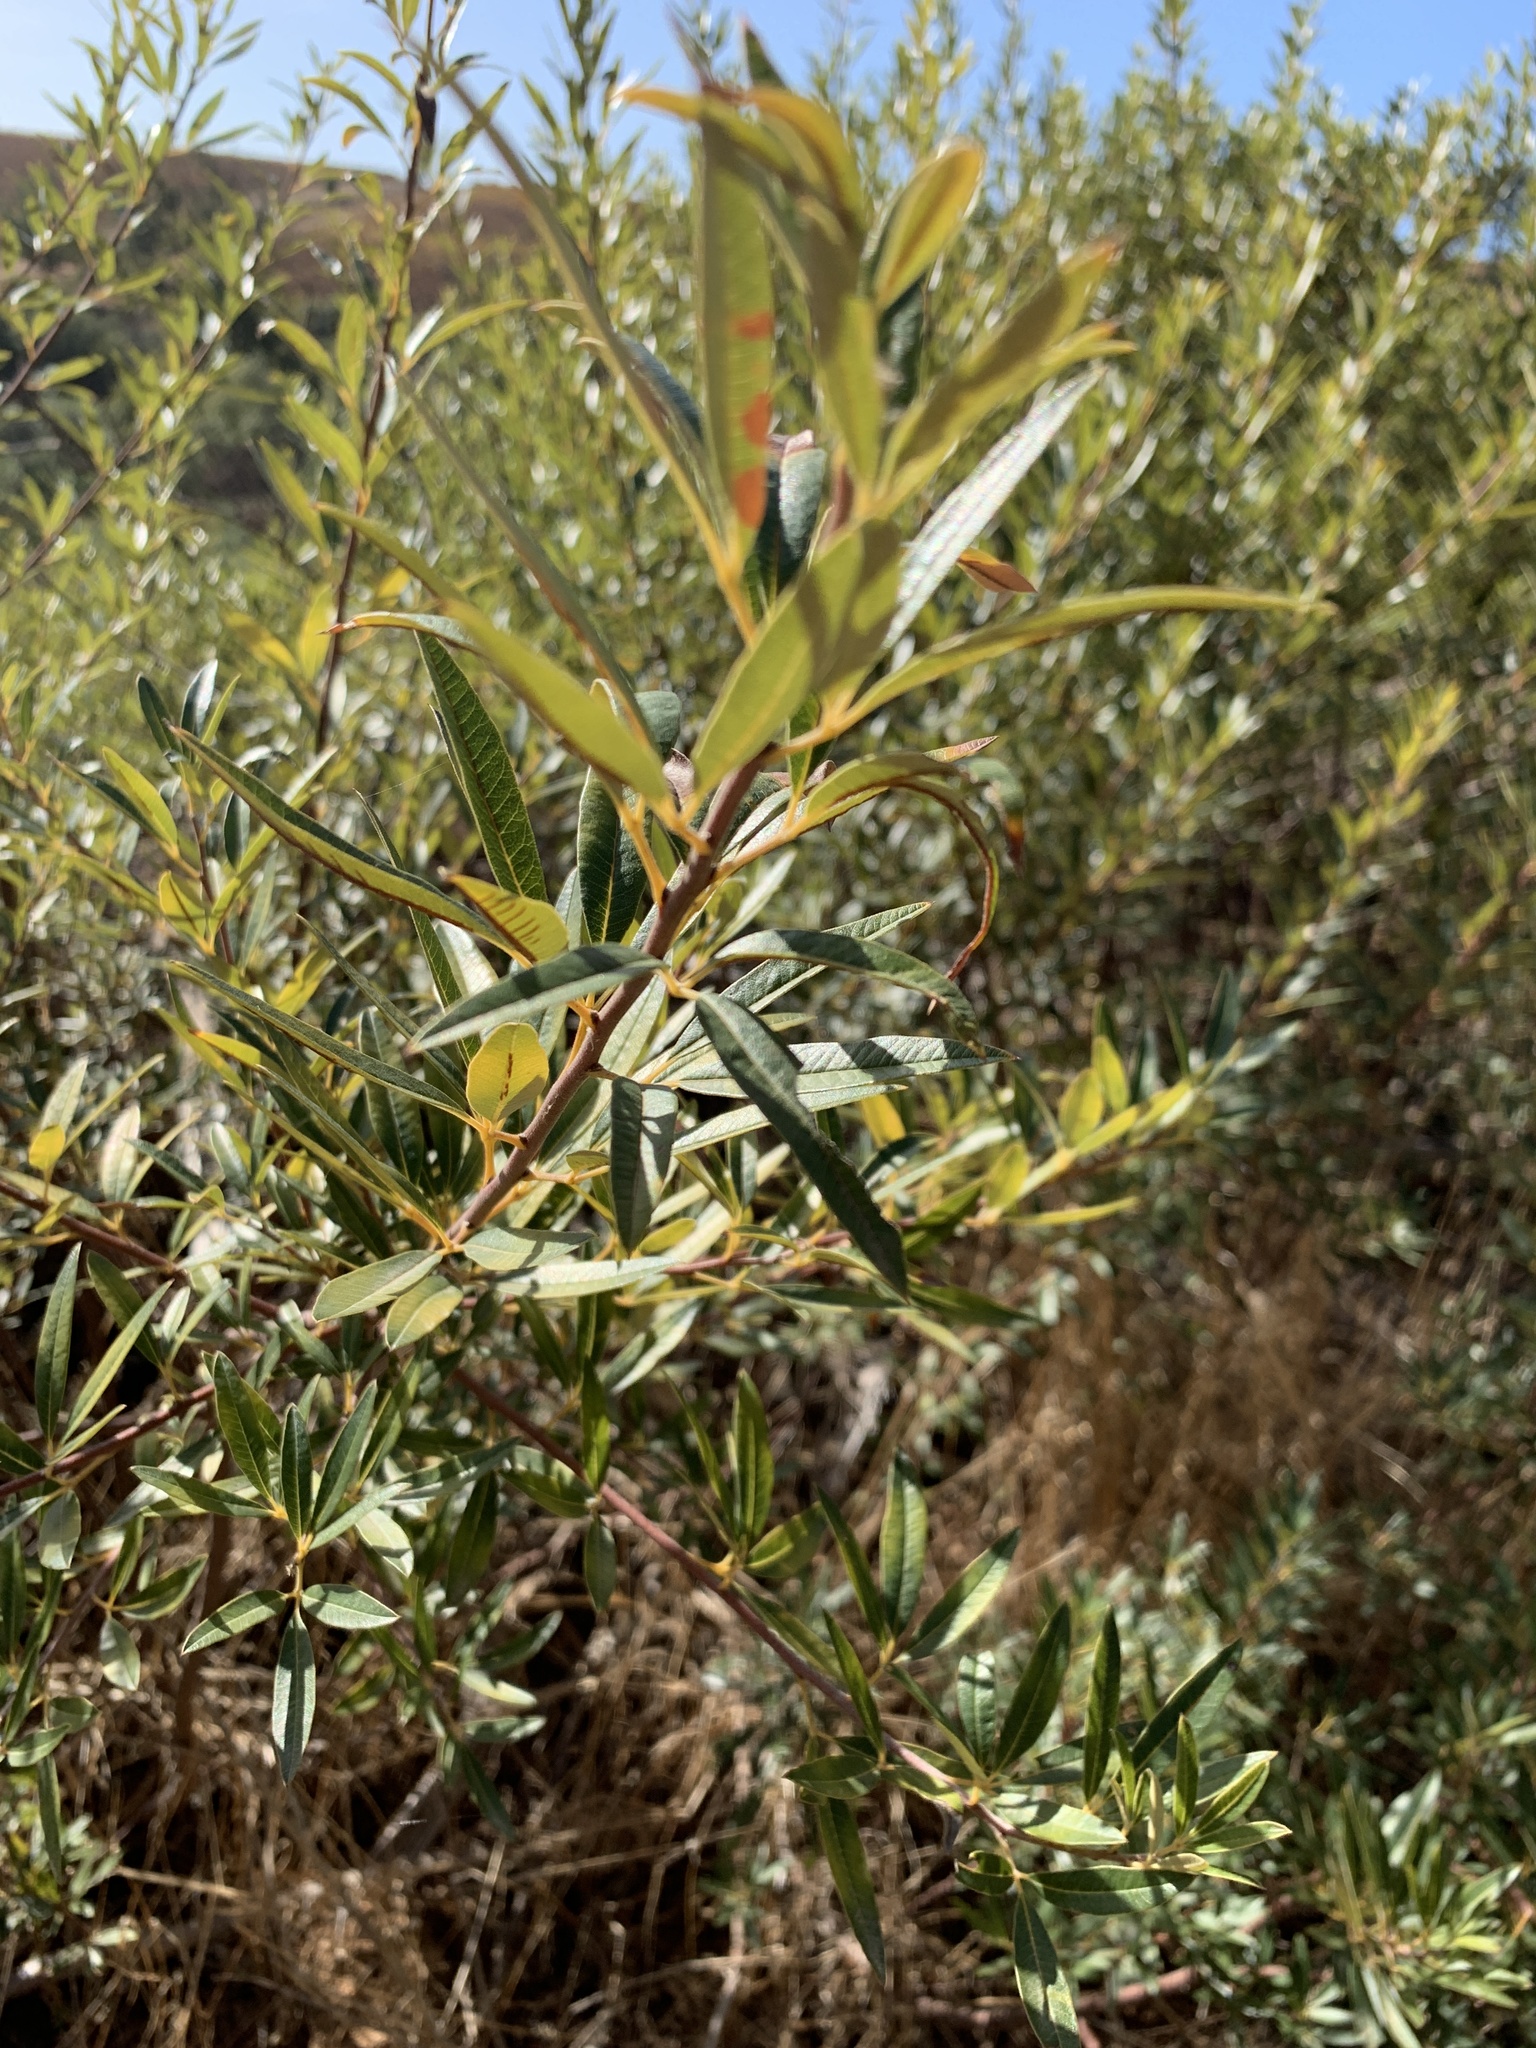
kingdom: Plantae
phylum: Tracheophyta
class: Magnoliopsida
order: Sapindales
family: Anacardiaceae
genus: Searsia
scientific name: Searsia angustifolia
